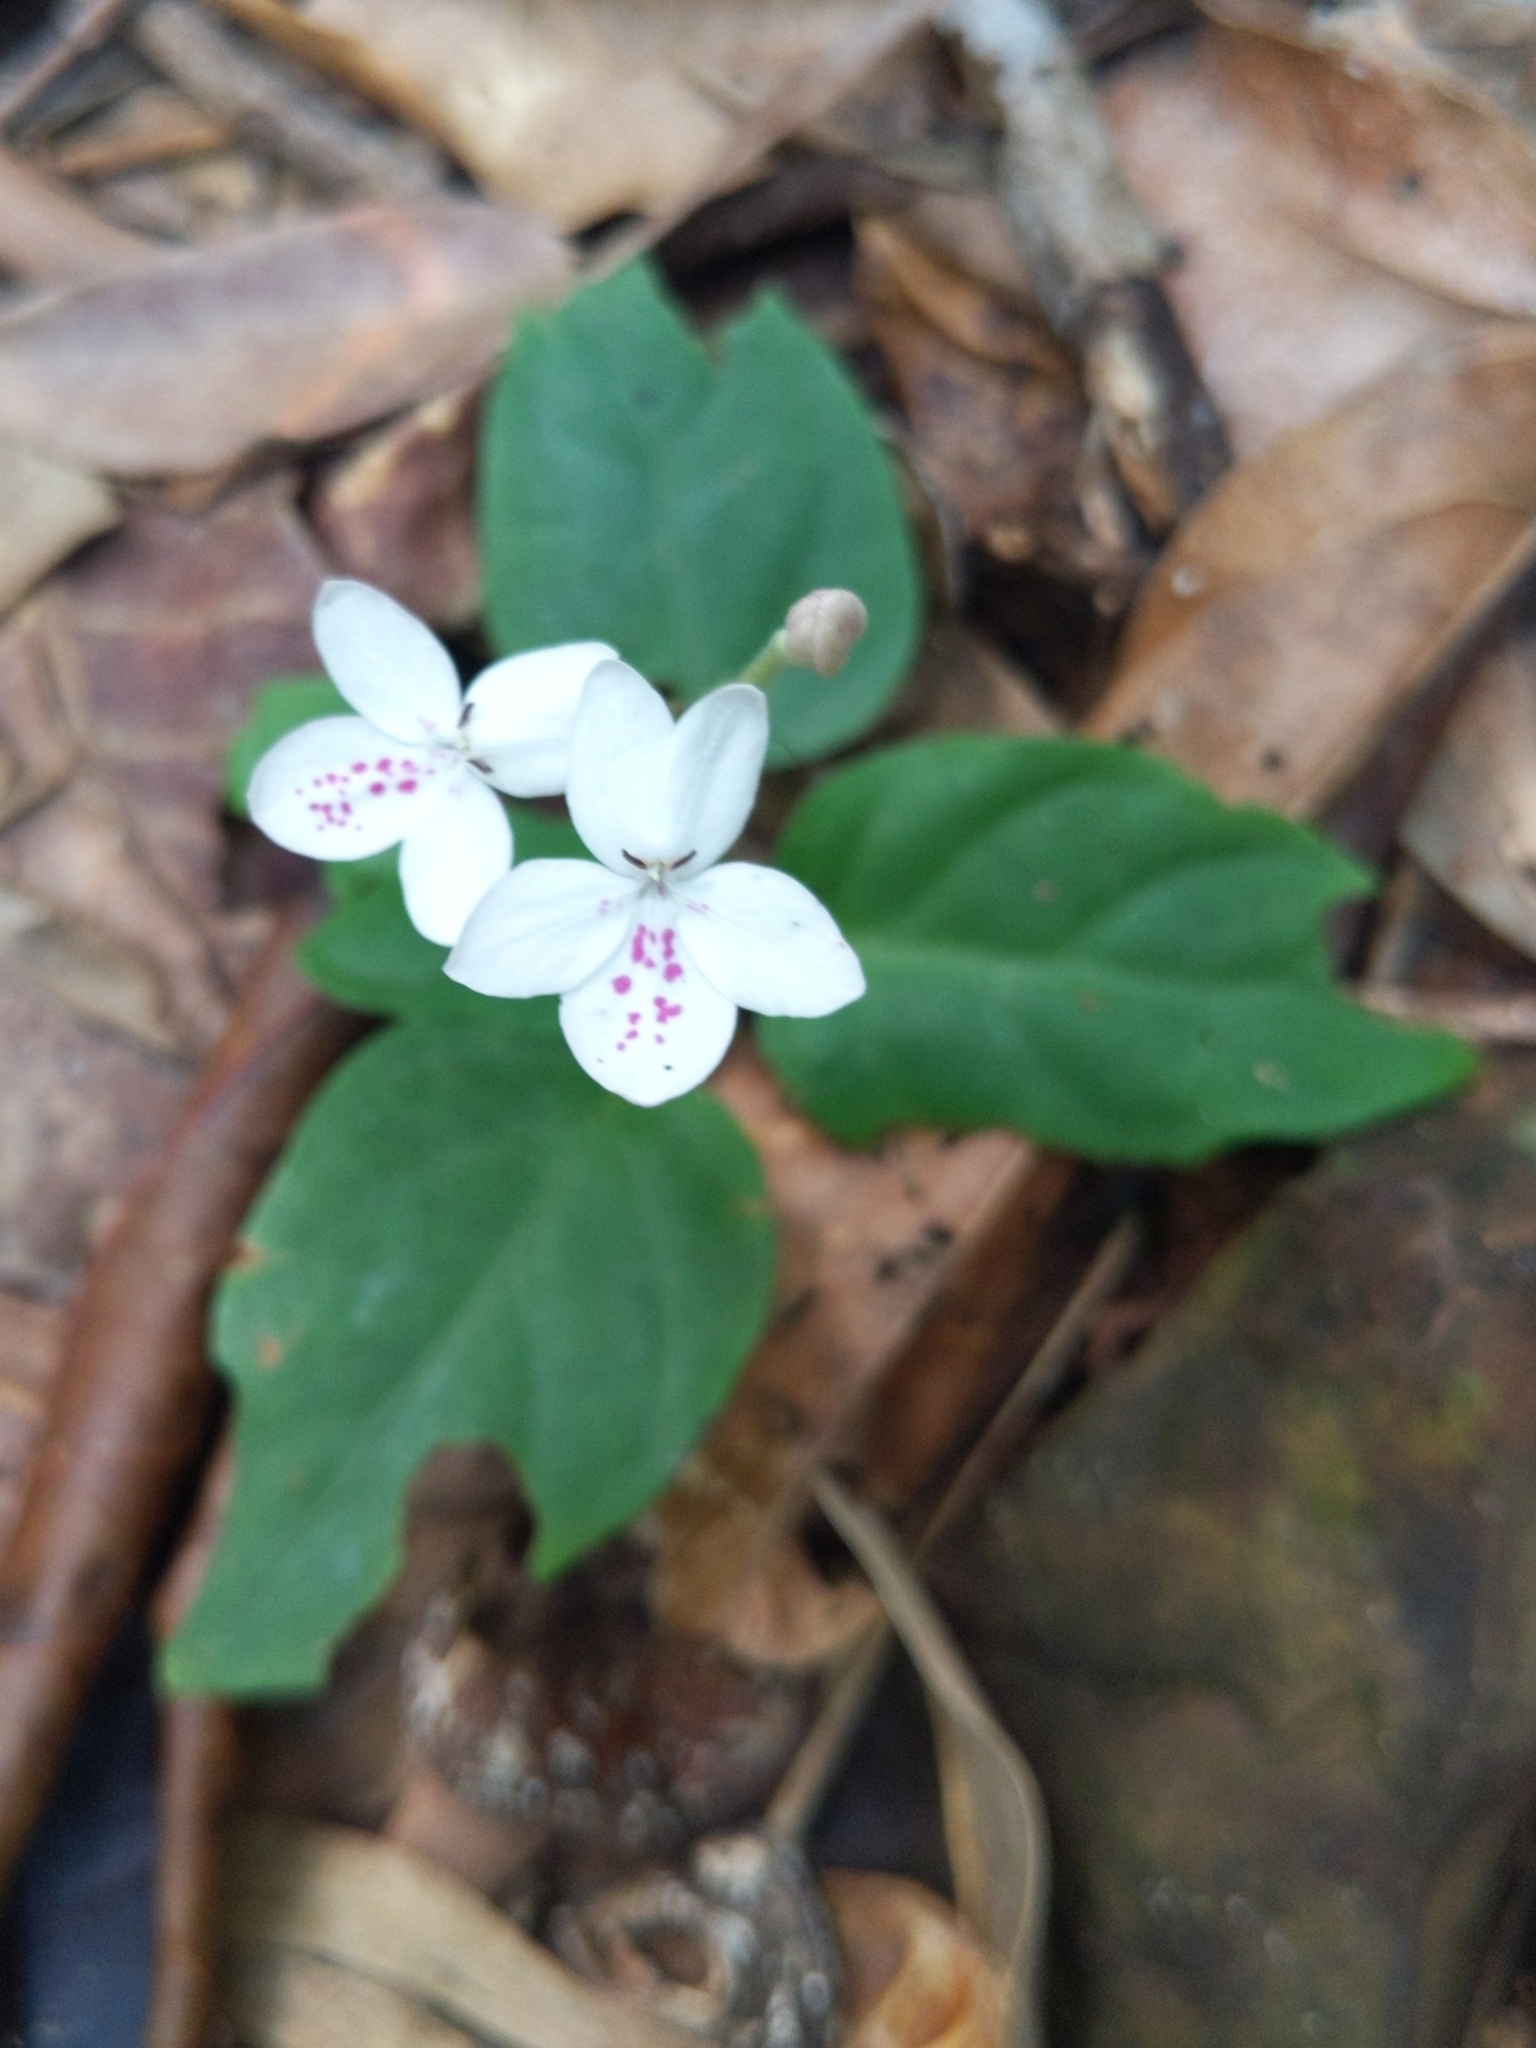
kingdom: Plantae
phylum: Tracheophyta
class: Magnoliopsida
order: Lamiales
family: Acanthaceae
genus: Pseuderanthemum
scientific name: Pseuderanthemum variabile
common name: Night and afternoon
